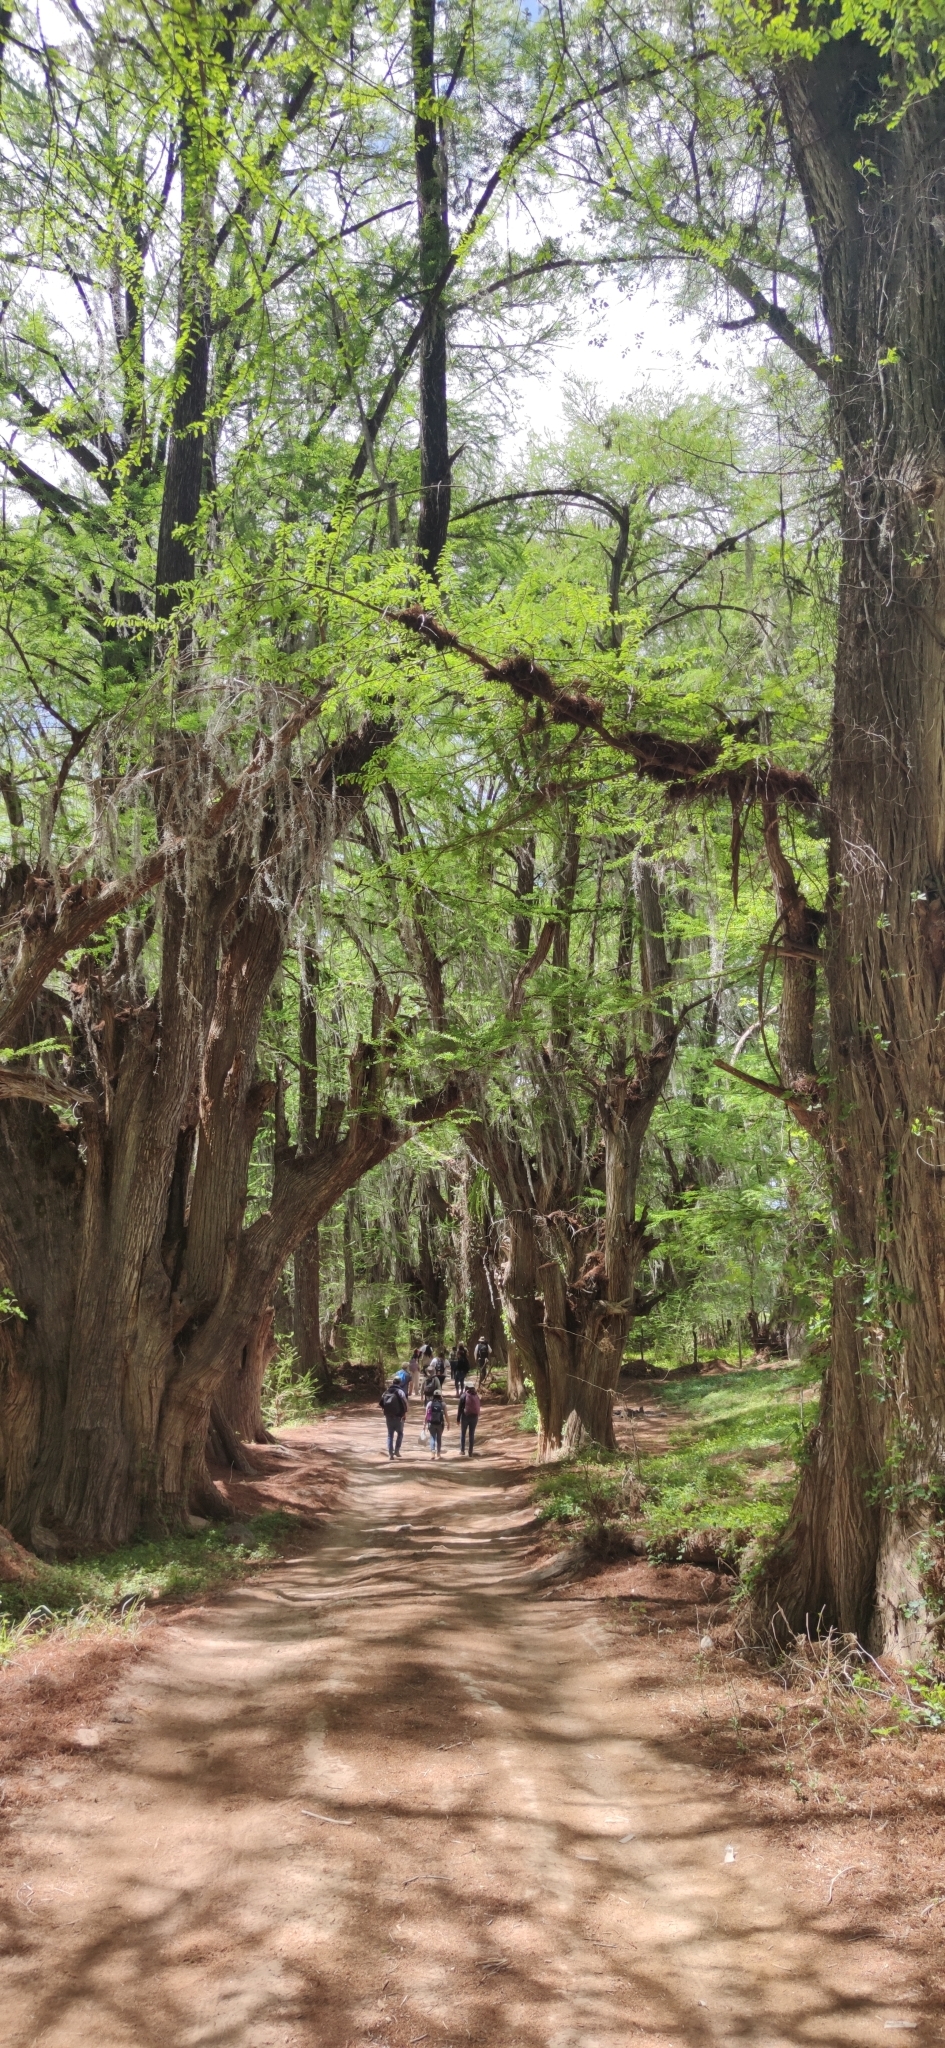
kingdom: Plantae
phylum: Tracheophyta
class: Pinopsida
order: Pinales
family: Cupressaceae
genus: Taxodium
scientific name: Taxodium mucronatum
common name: Montezume bald cypress
